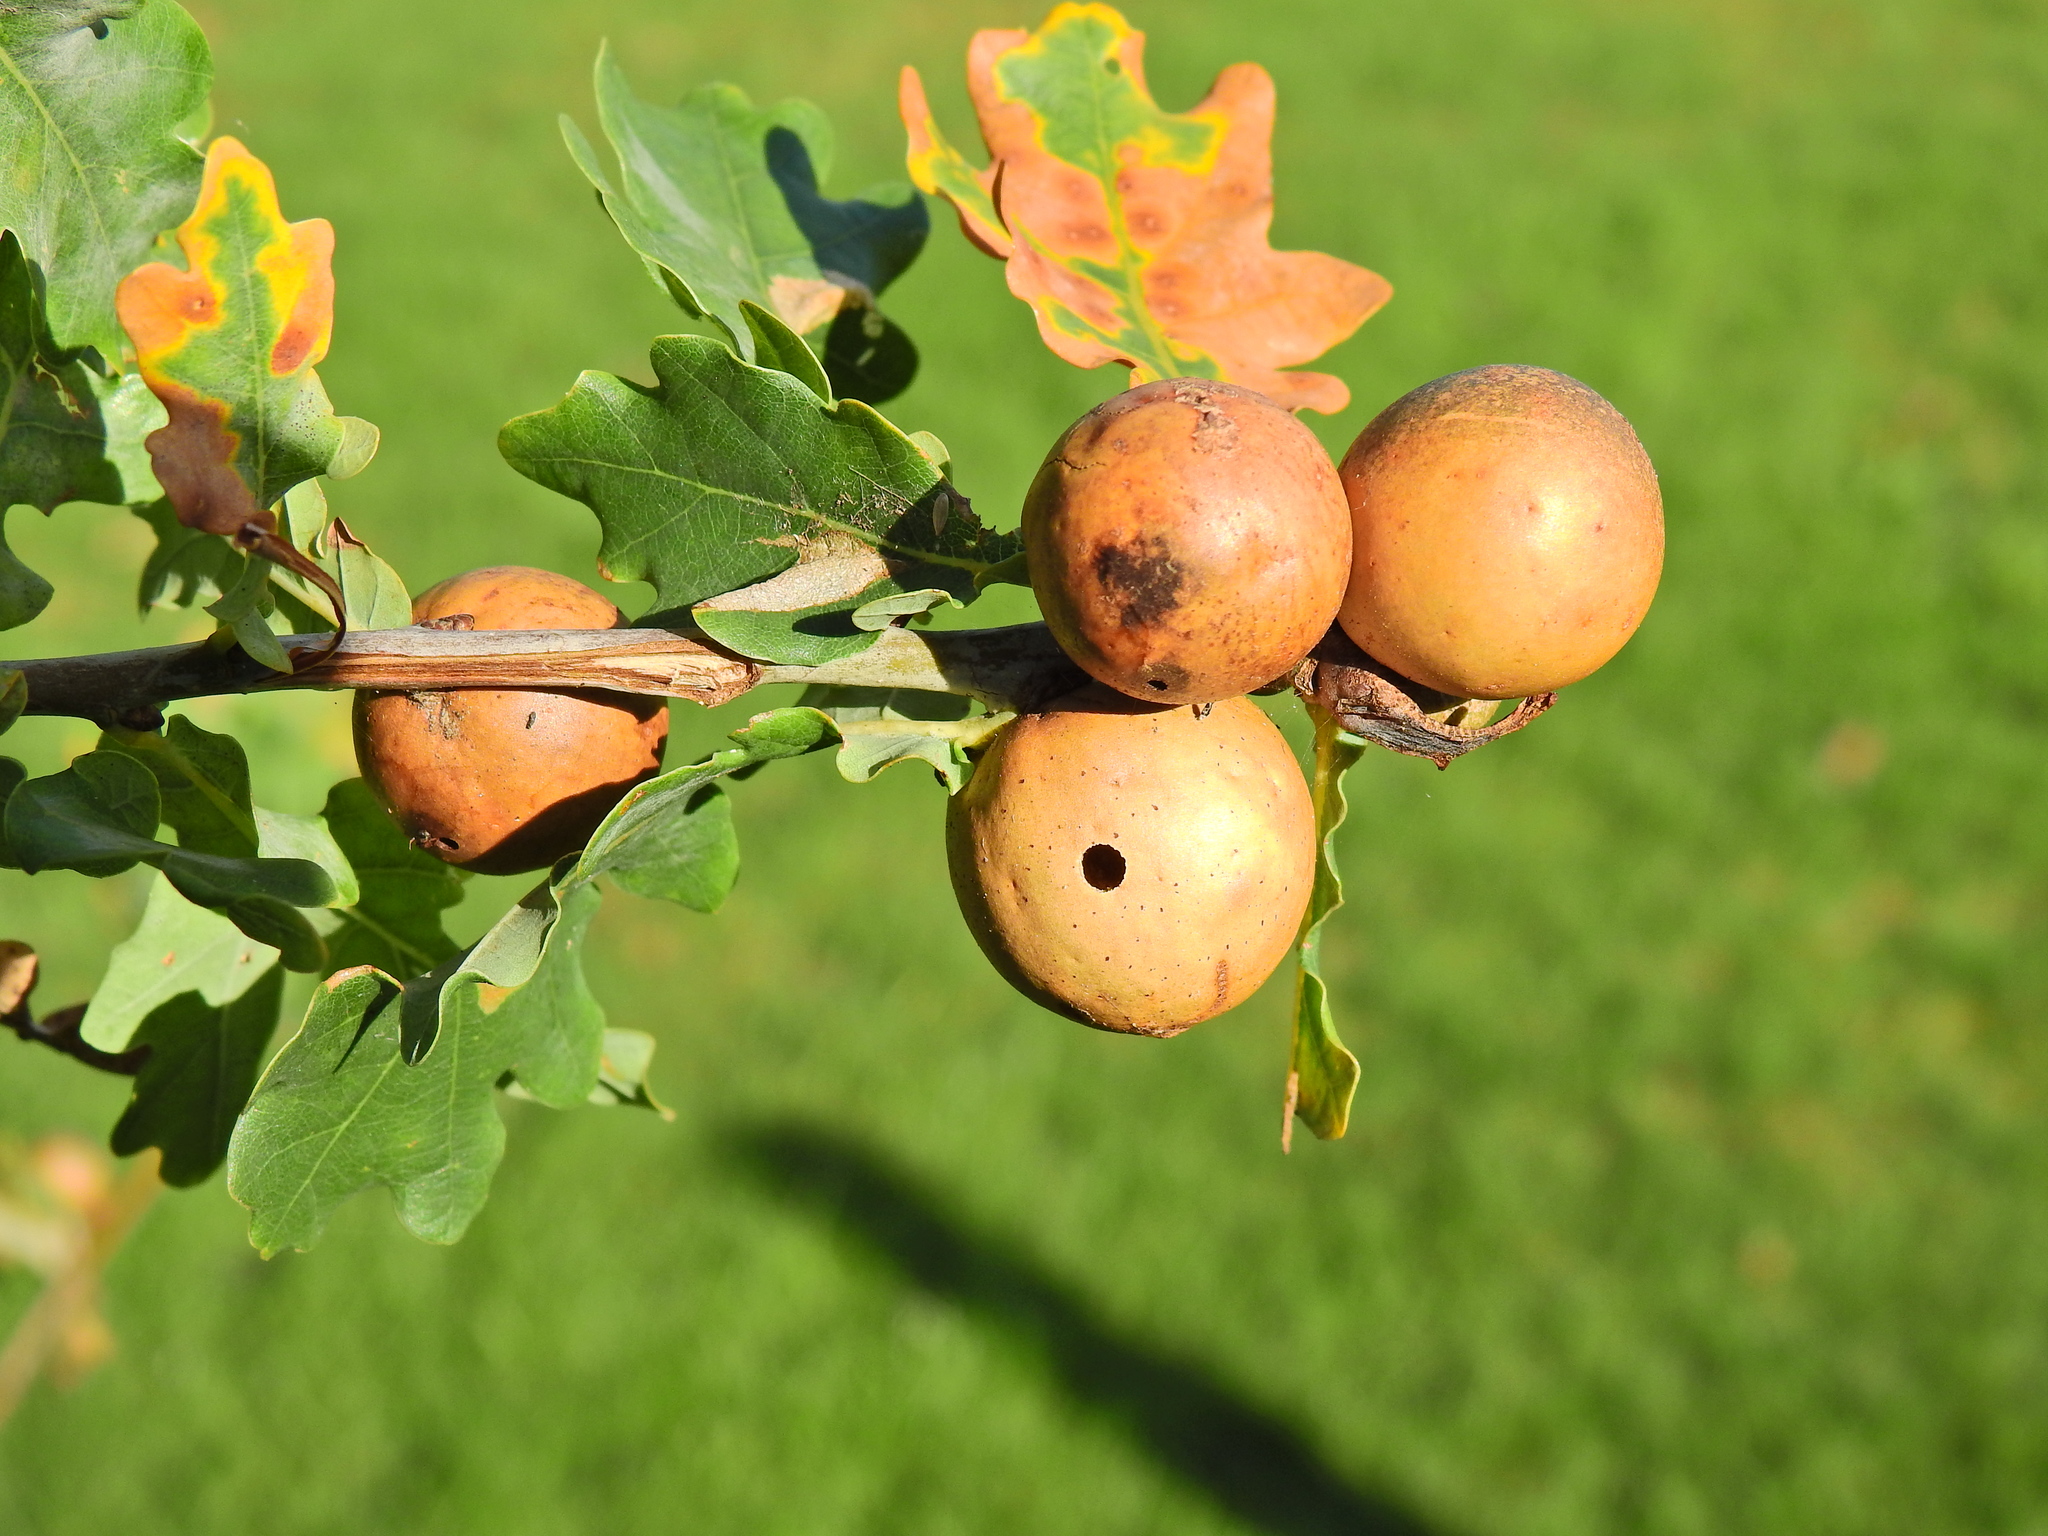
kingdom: Animalia
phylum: Arthropoda
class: Insecta
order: Hymenoptera
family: Cynipidae
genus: Andricus
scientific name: Andricus kollari
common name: Marble gall
